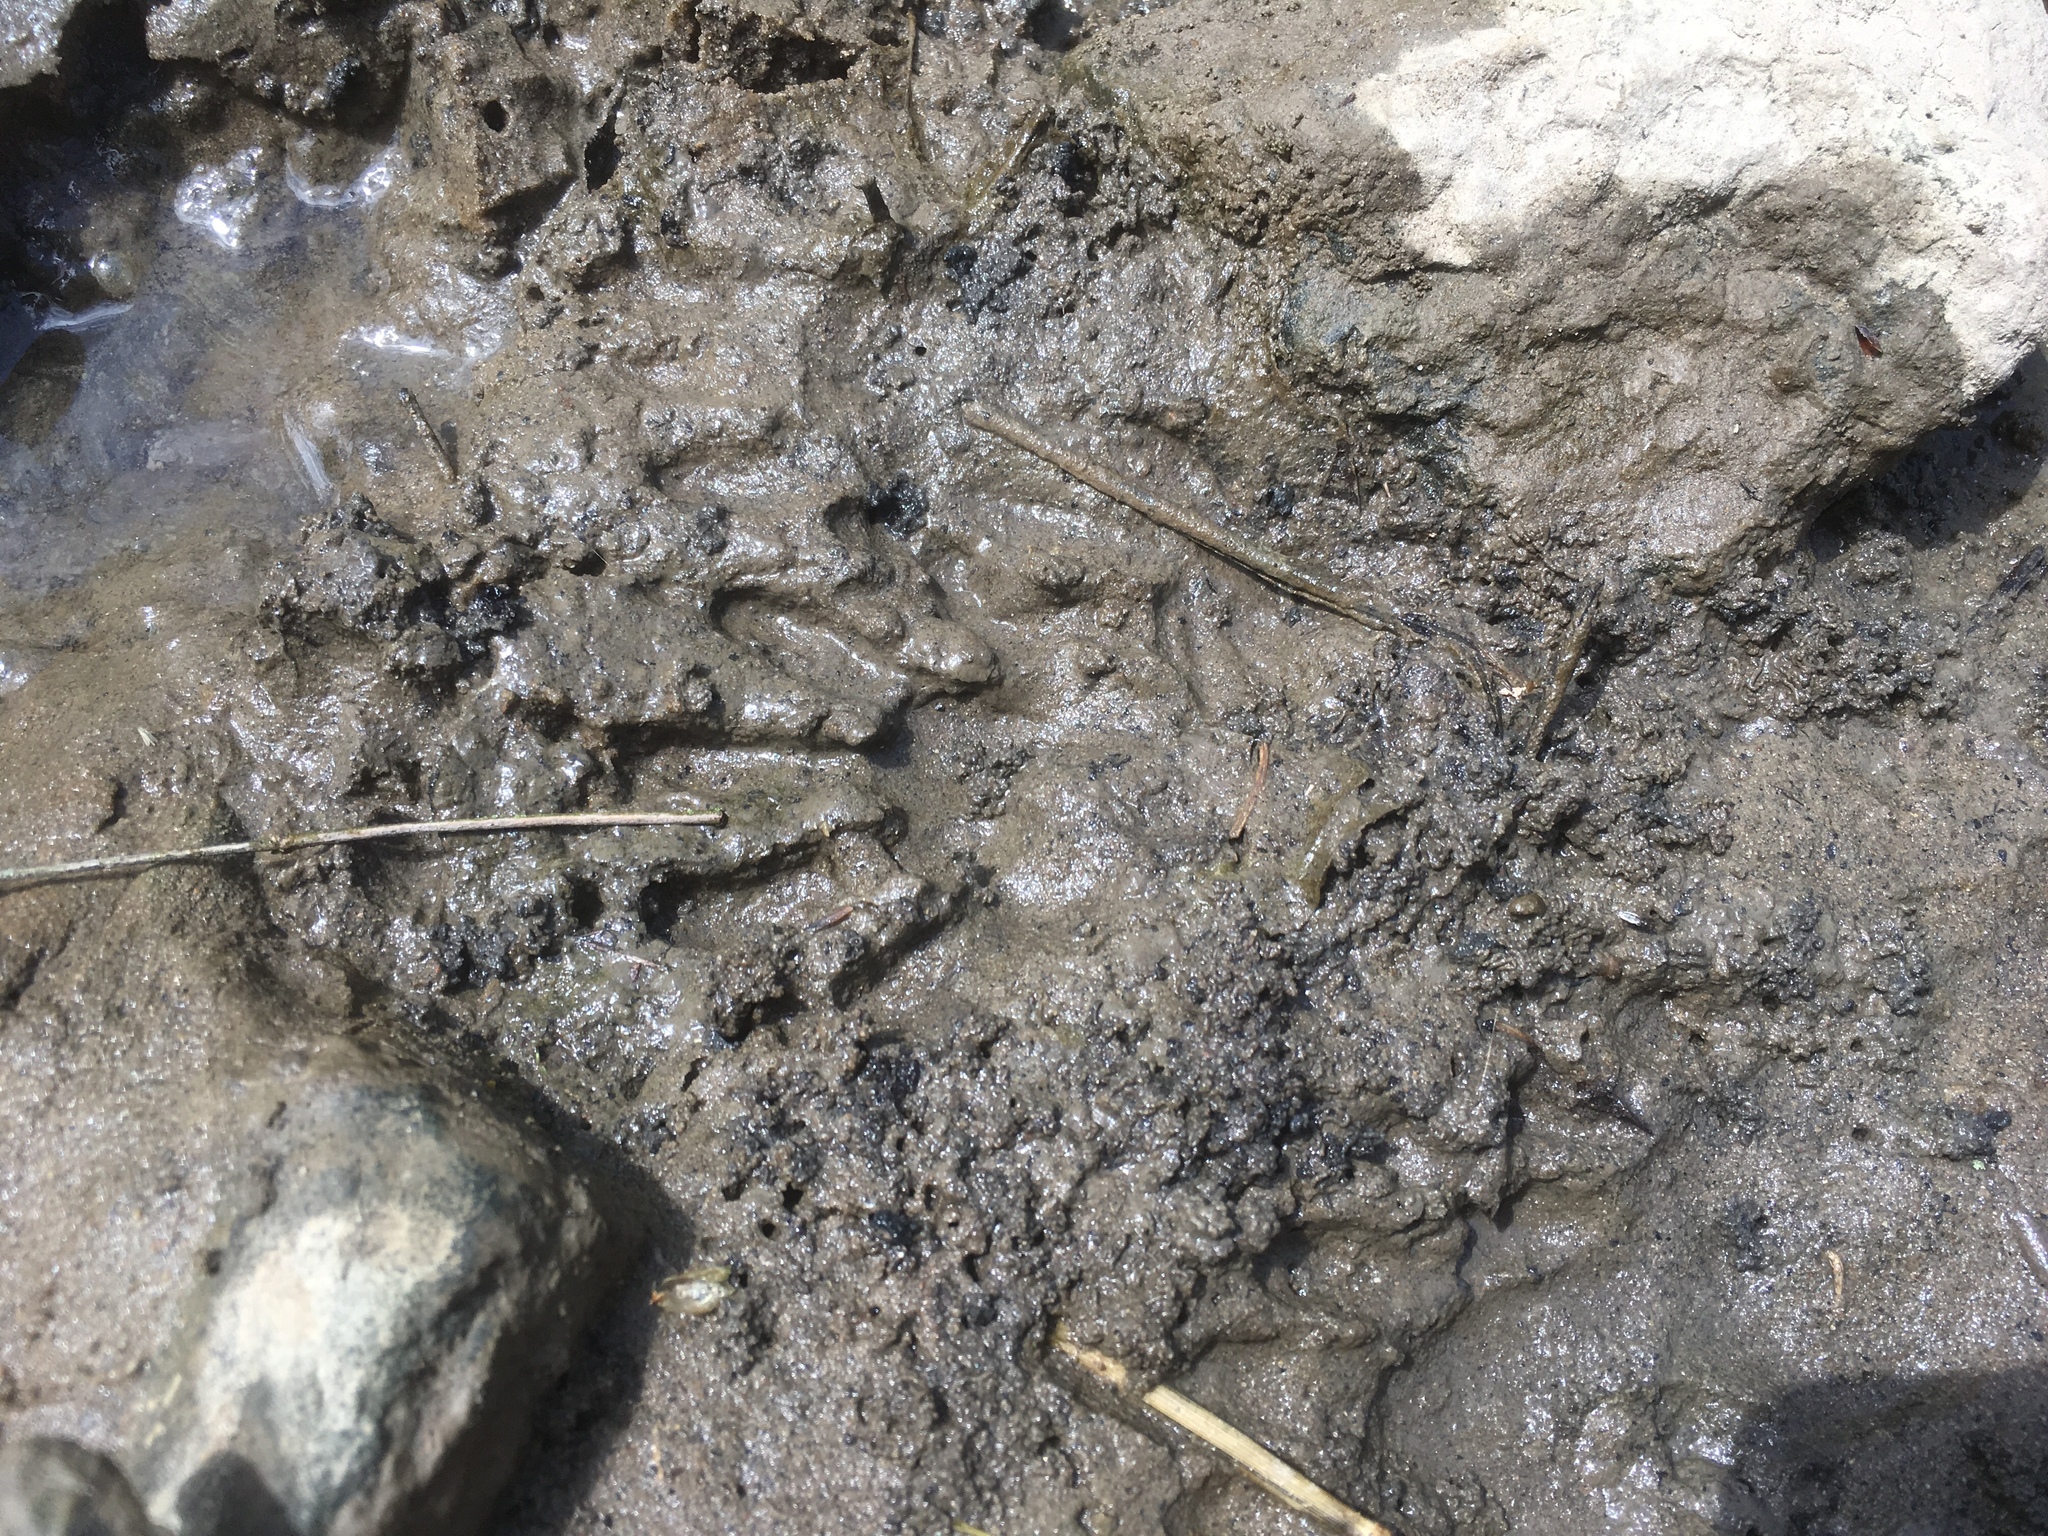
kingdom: Animalia
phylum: Chordata
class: Mammalia
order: Carnivora
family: Procyonidae
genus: Procyon
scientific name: Procyon lotor
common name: Raccoon
